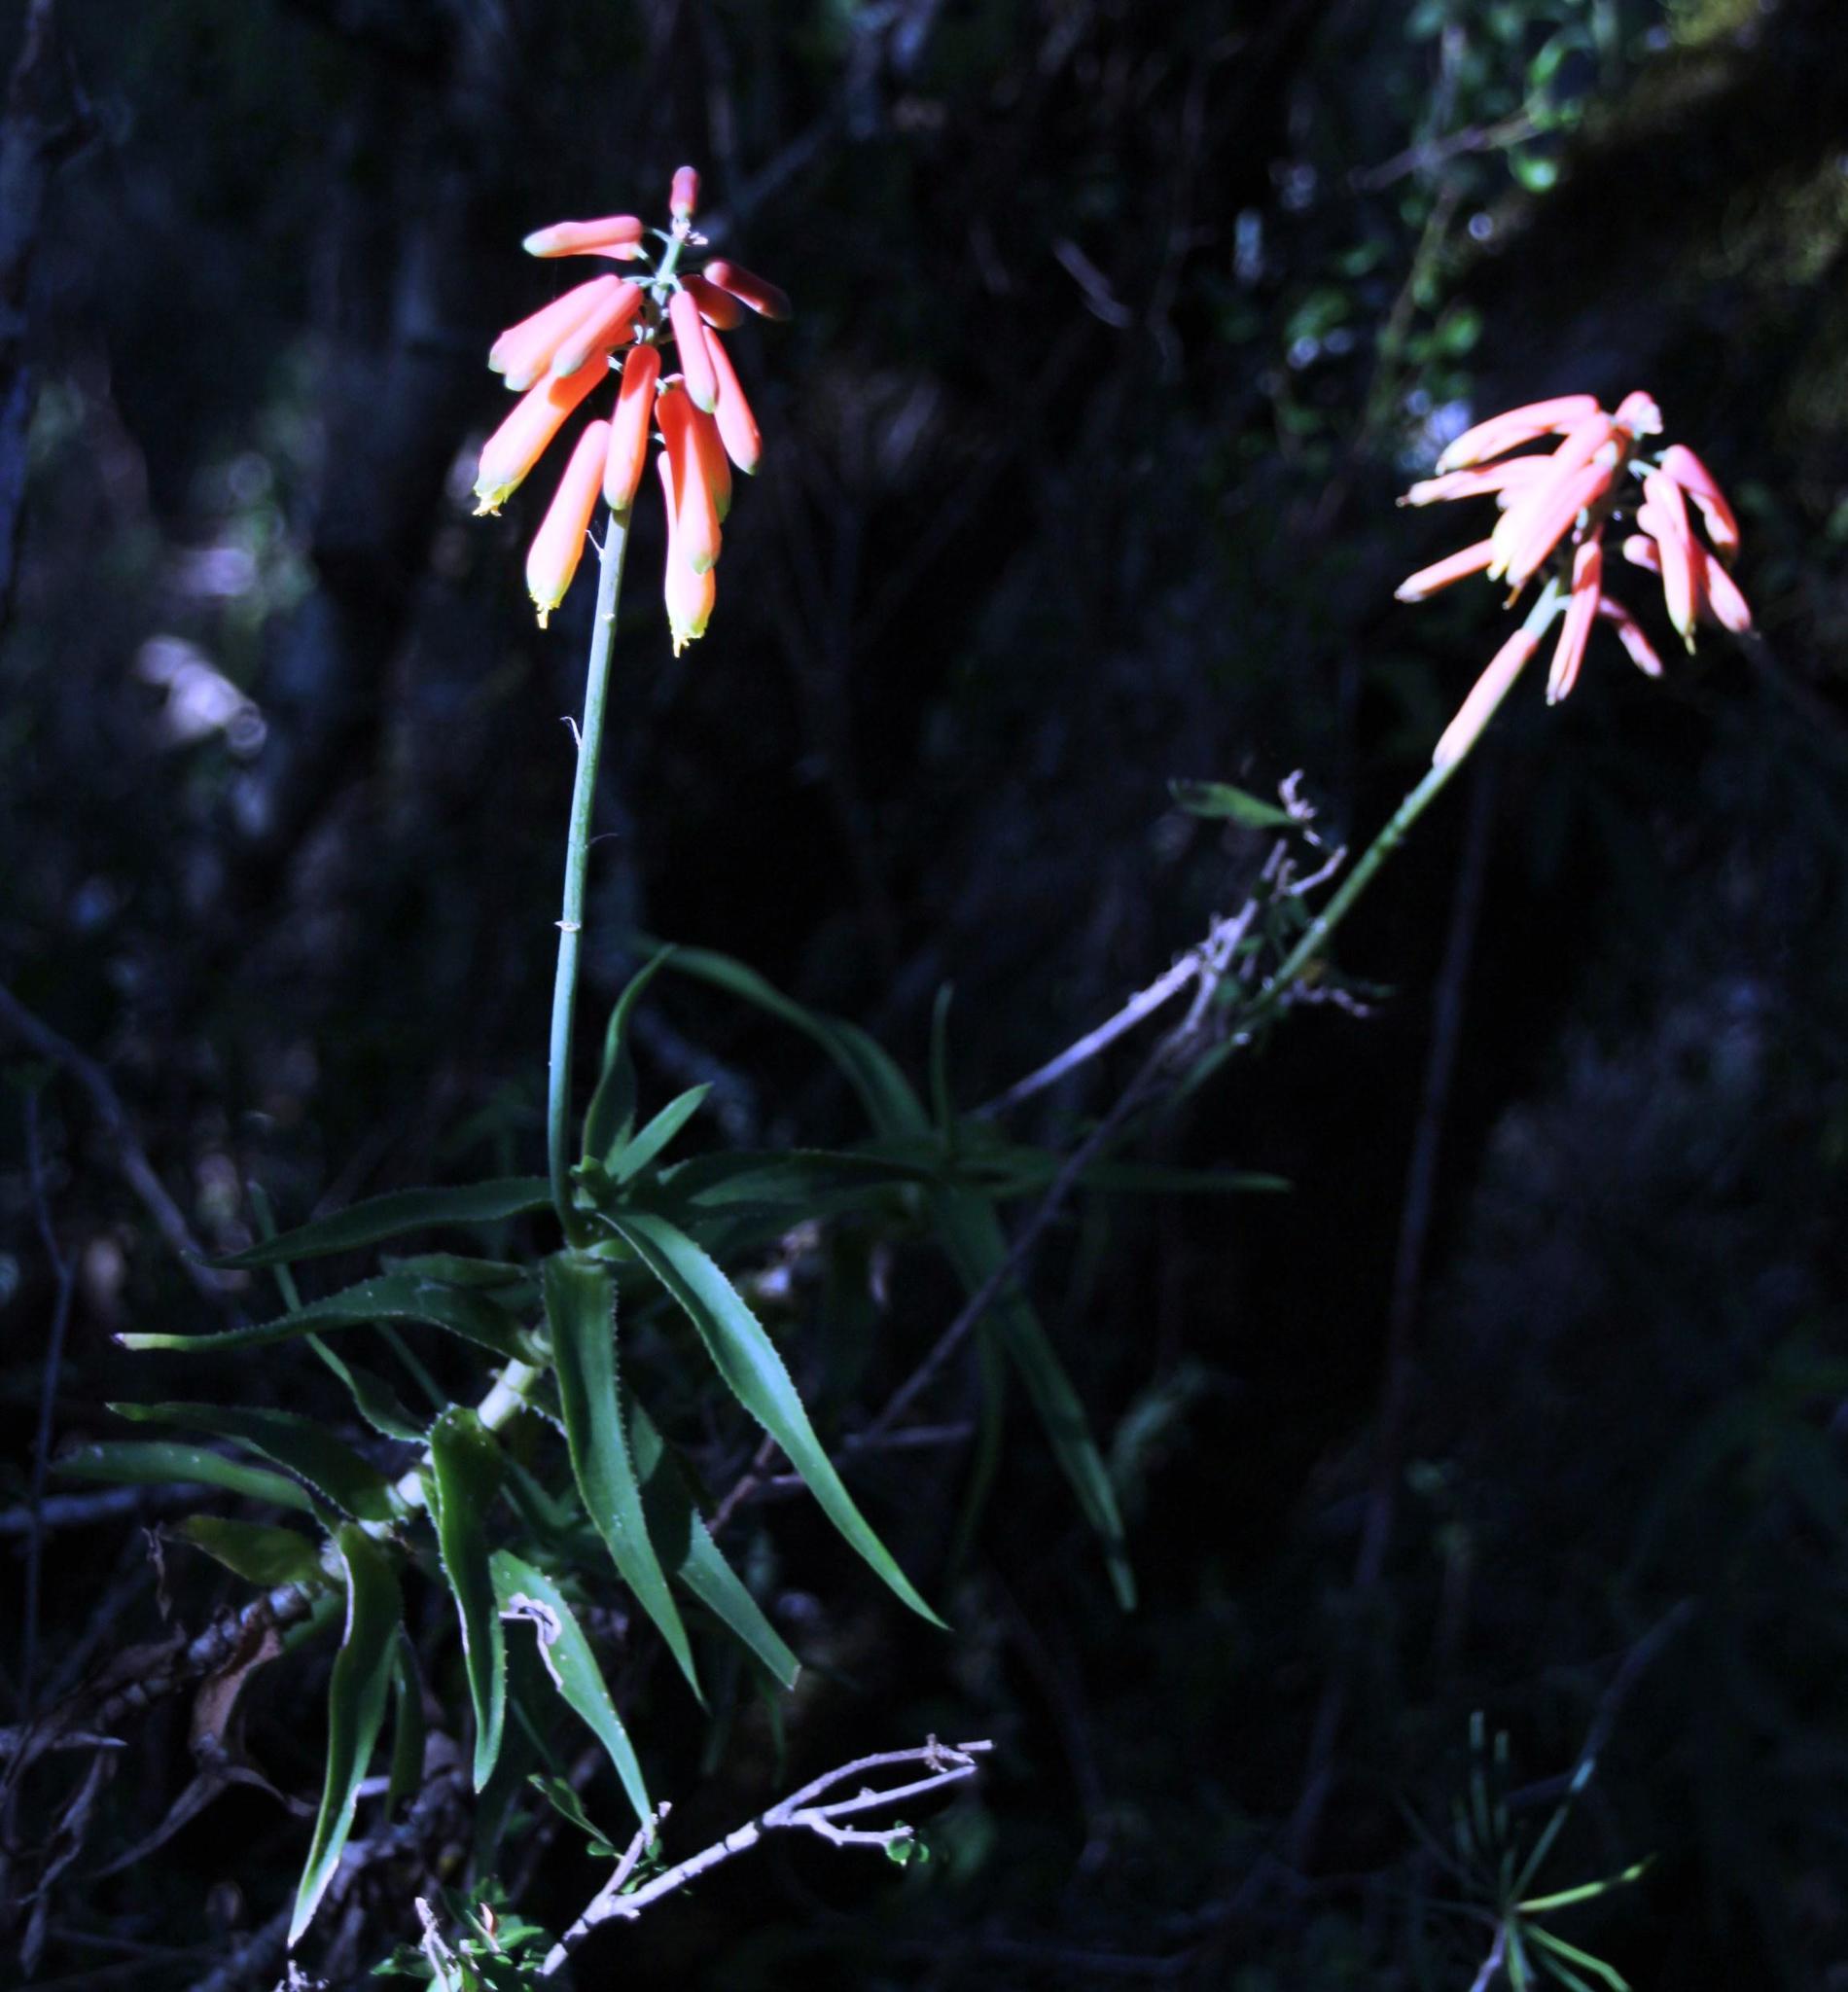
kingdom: Plantae
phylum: Tracheophyta
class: Liliopsida
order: Asparagales
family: Asphodelaceae
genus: Aloiampelos
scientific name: Aloiampelos ciliaris
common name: Climbing aloe
